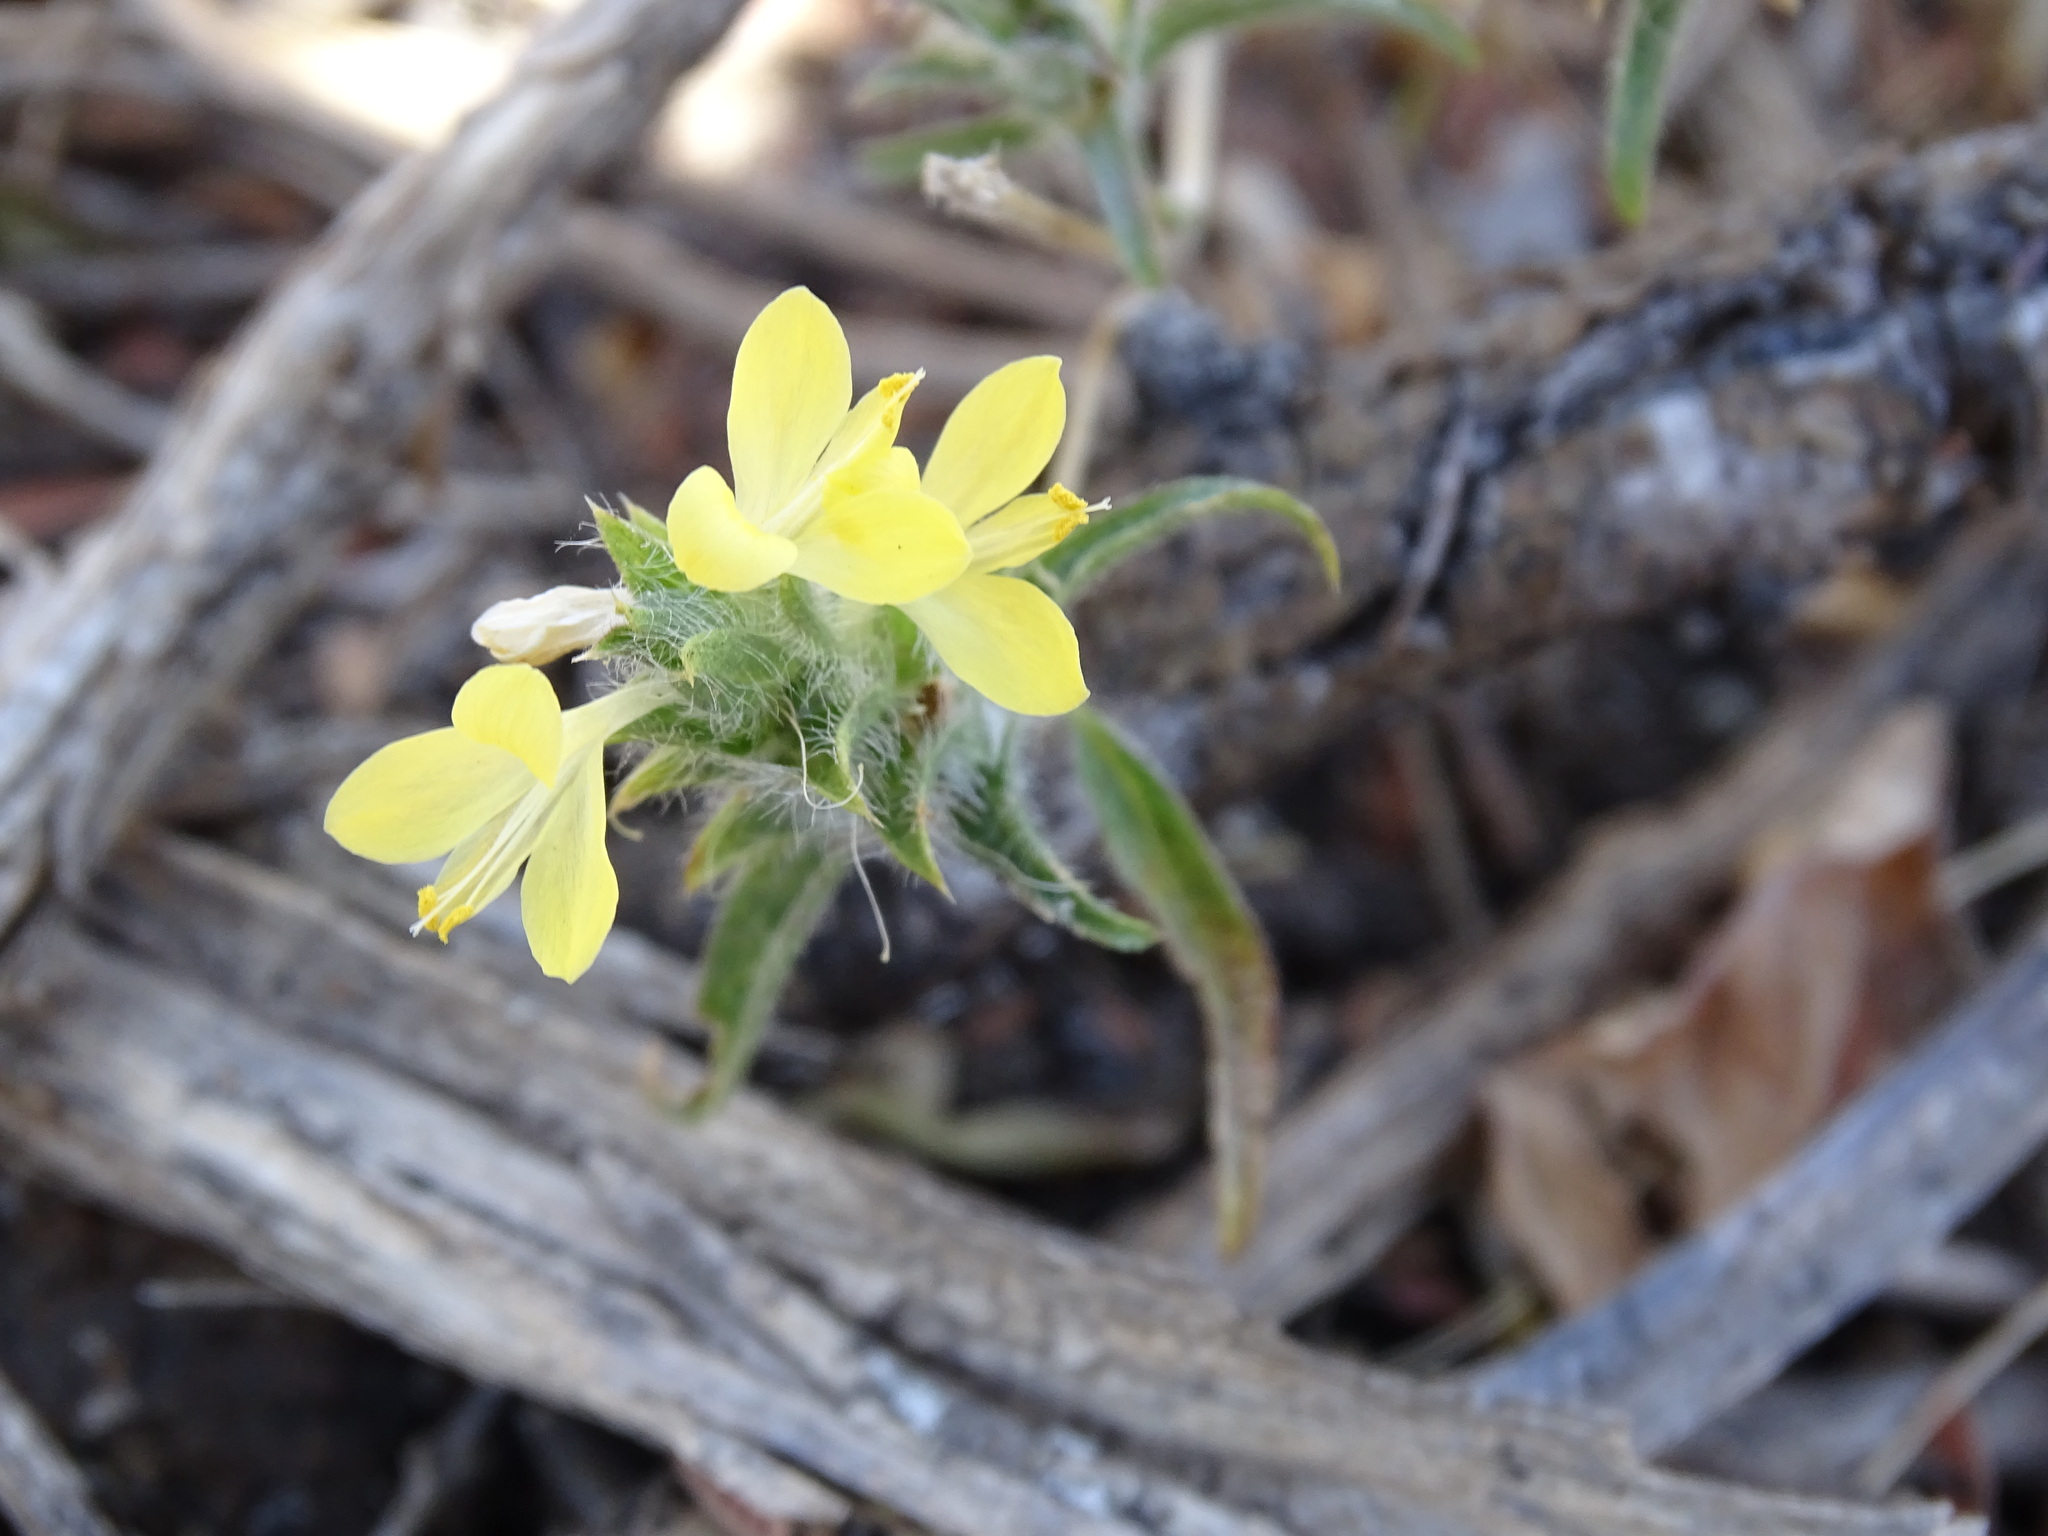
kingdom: Plantae
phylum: Tracheophyta
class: Magnoliopsida
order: Lamiales
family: Acanthaceae
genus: Tetramerium
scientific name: Tetramerium nervosum
